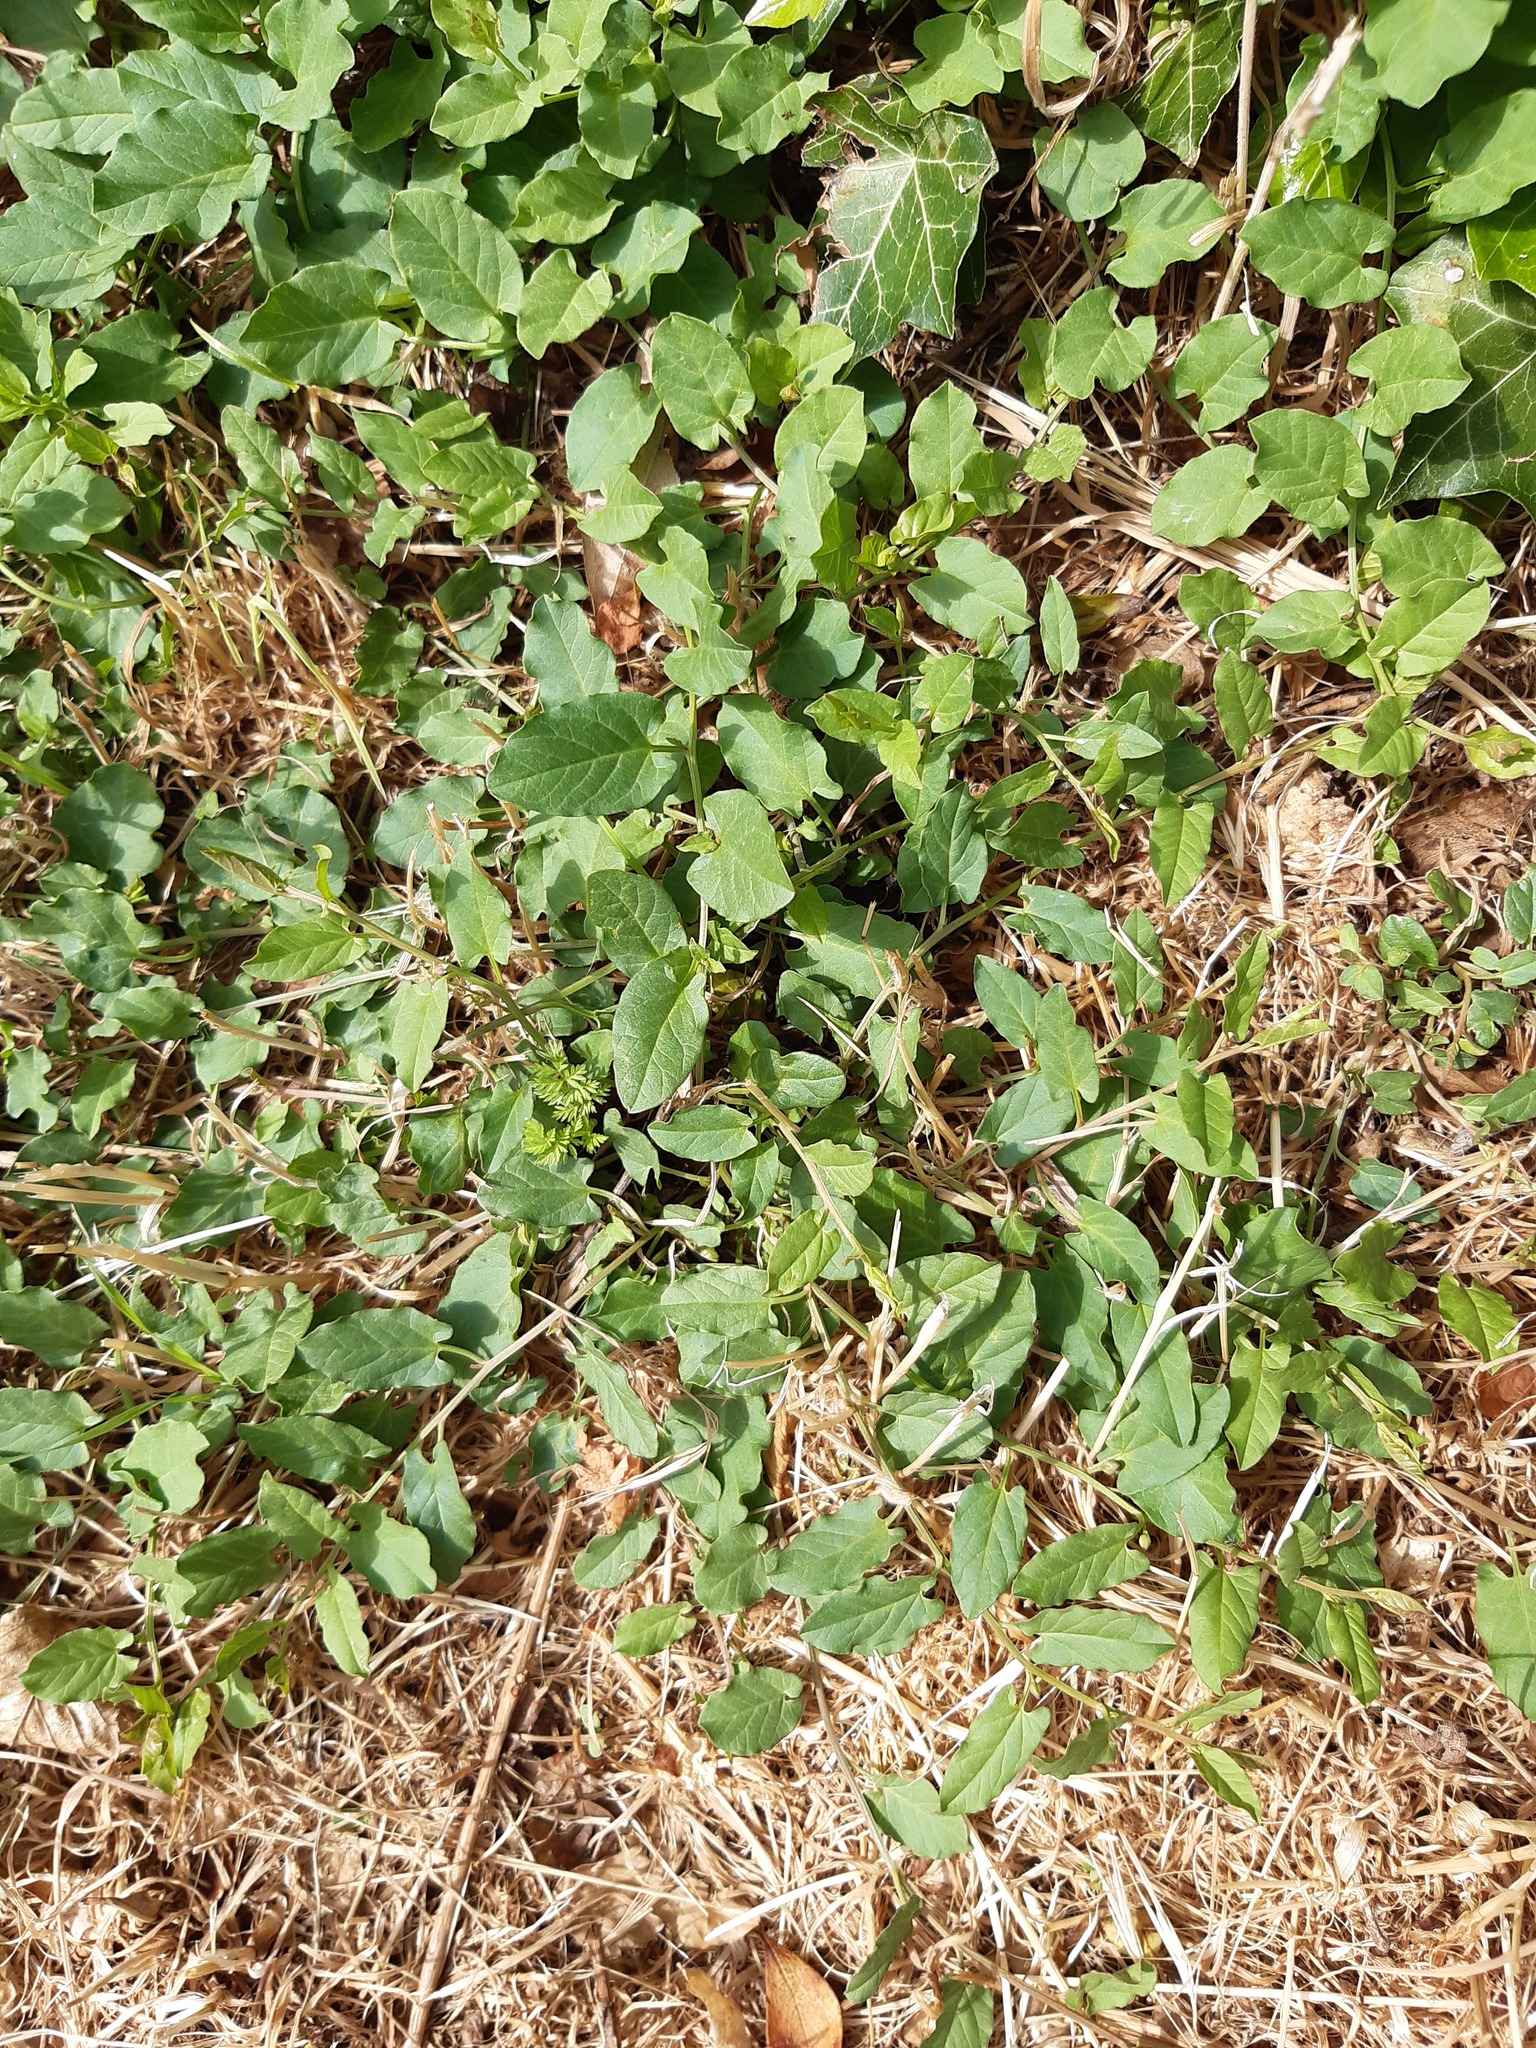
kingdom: Plantae
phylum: Tracheophyta
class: Magnoliopsida
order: Solanales
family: Convolvulaceae
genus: Convolvulus
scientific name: Convolvulus arvensis
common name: Field bindweed
